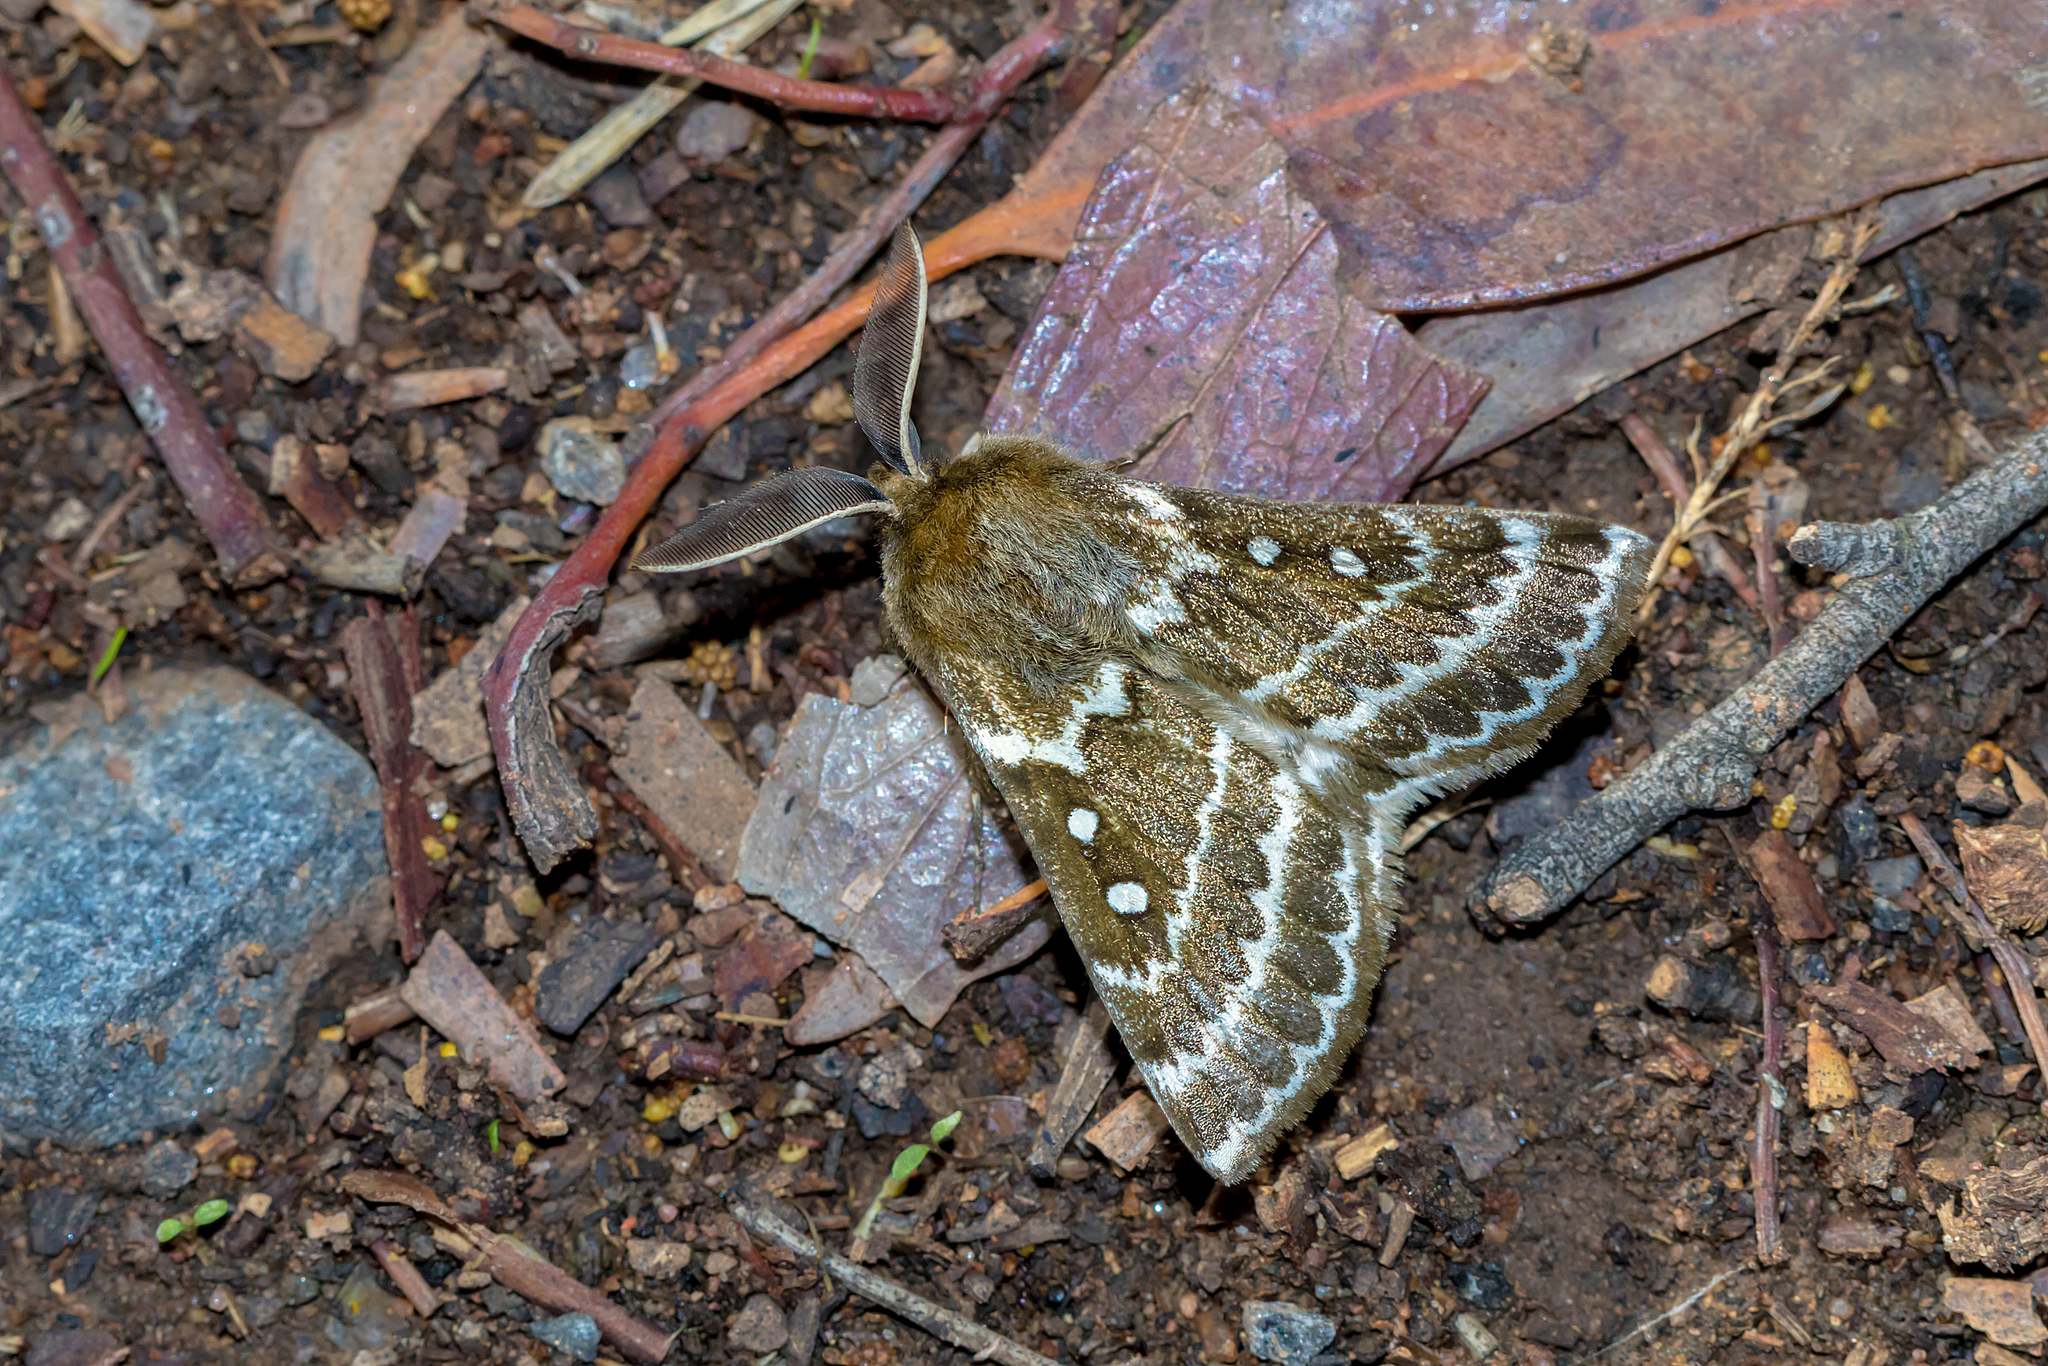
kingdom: Animalia
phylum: Arthropoda
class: Insecta
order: Lepidoptera
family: Anthelidae
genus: Anthela
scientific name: Anthela basigera
